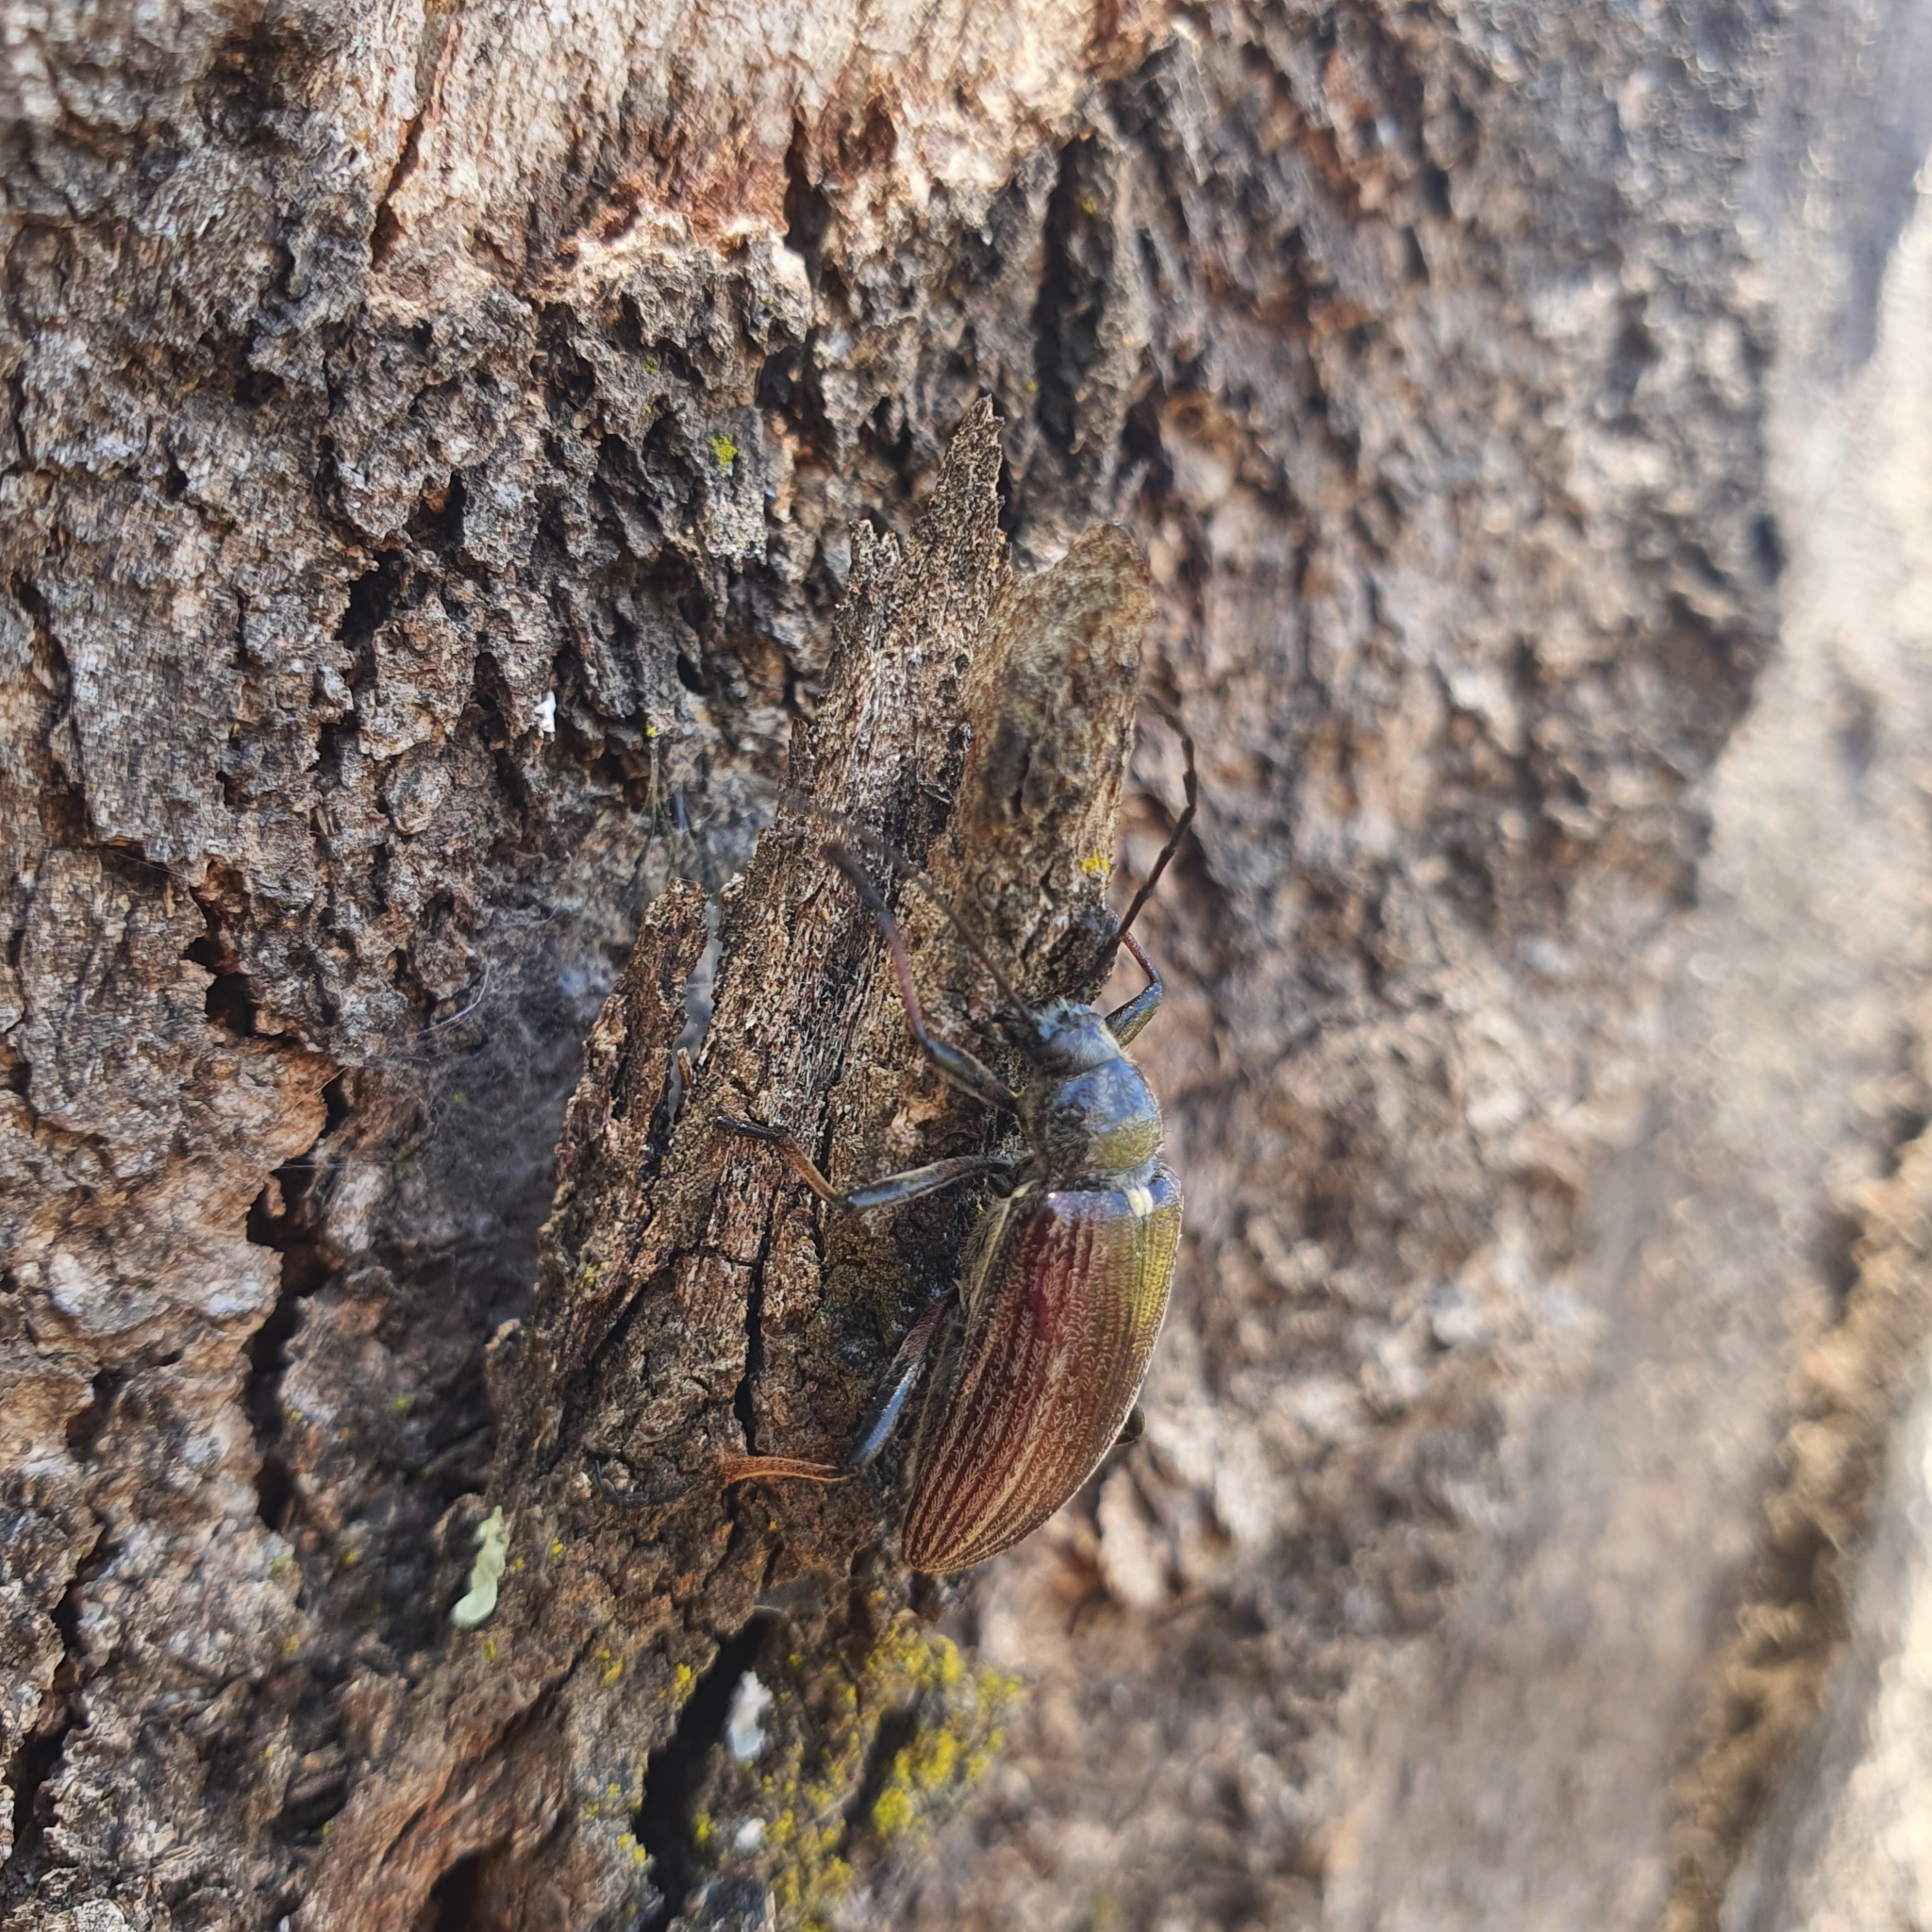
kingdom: Animalia
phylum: Arthropoda
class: Insecta
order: Coleoptera
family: Tenebrionidae
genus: Homotrysis
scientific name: Homotrysis
